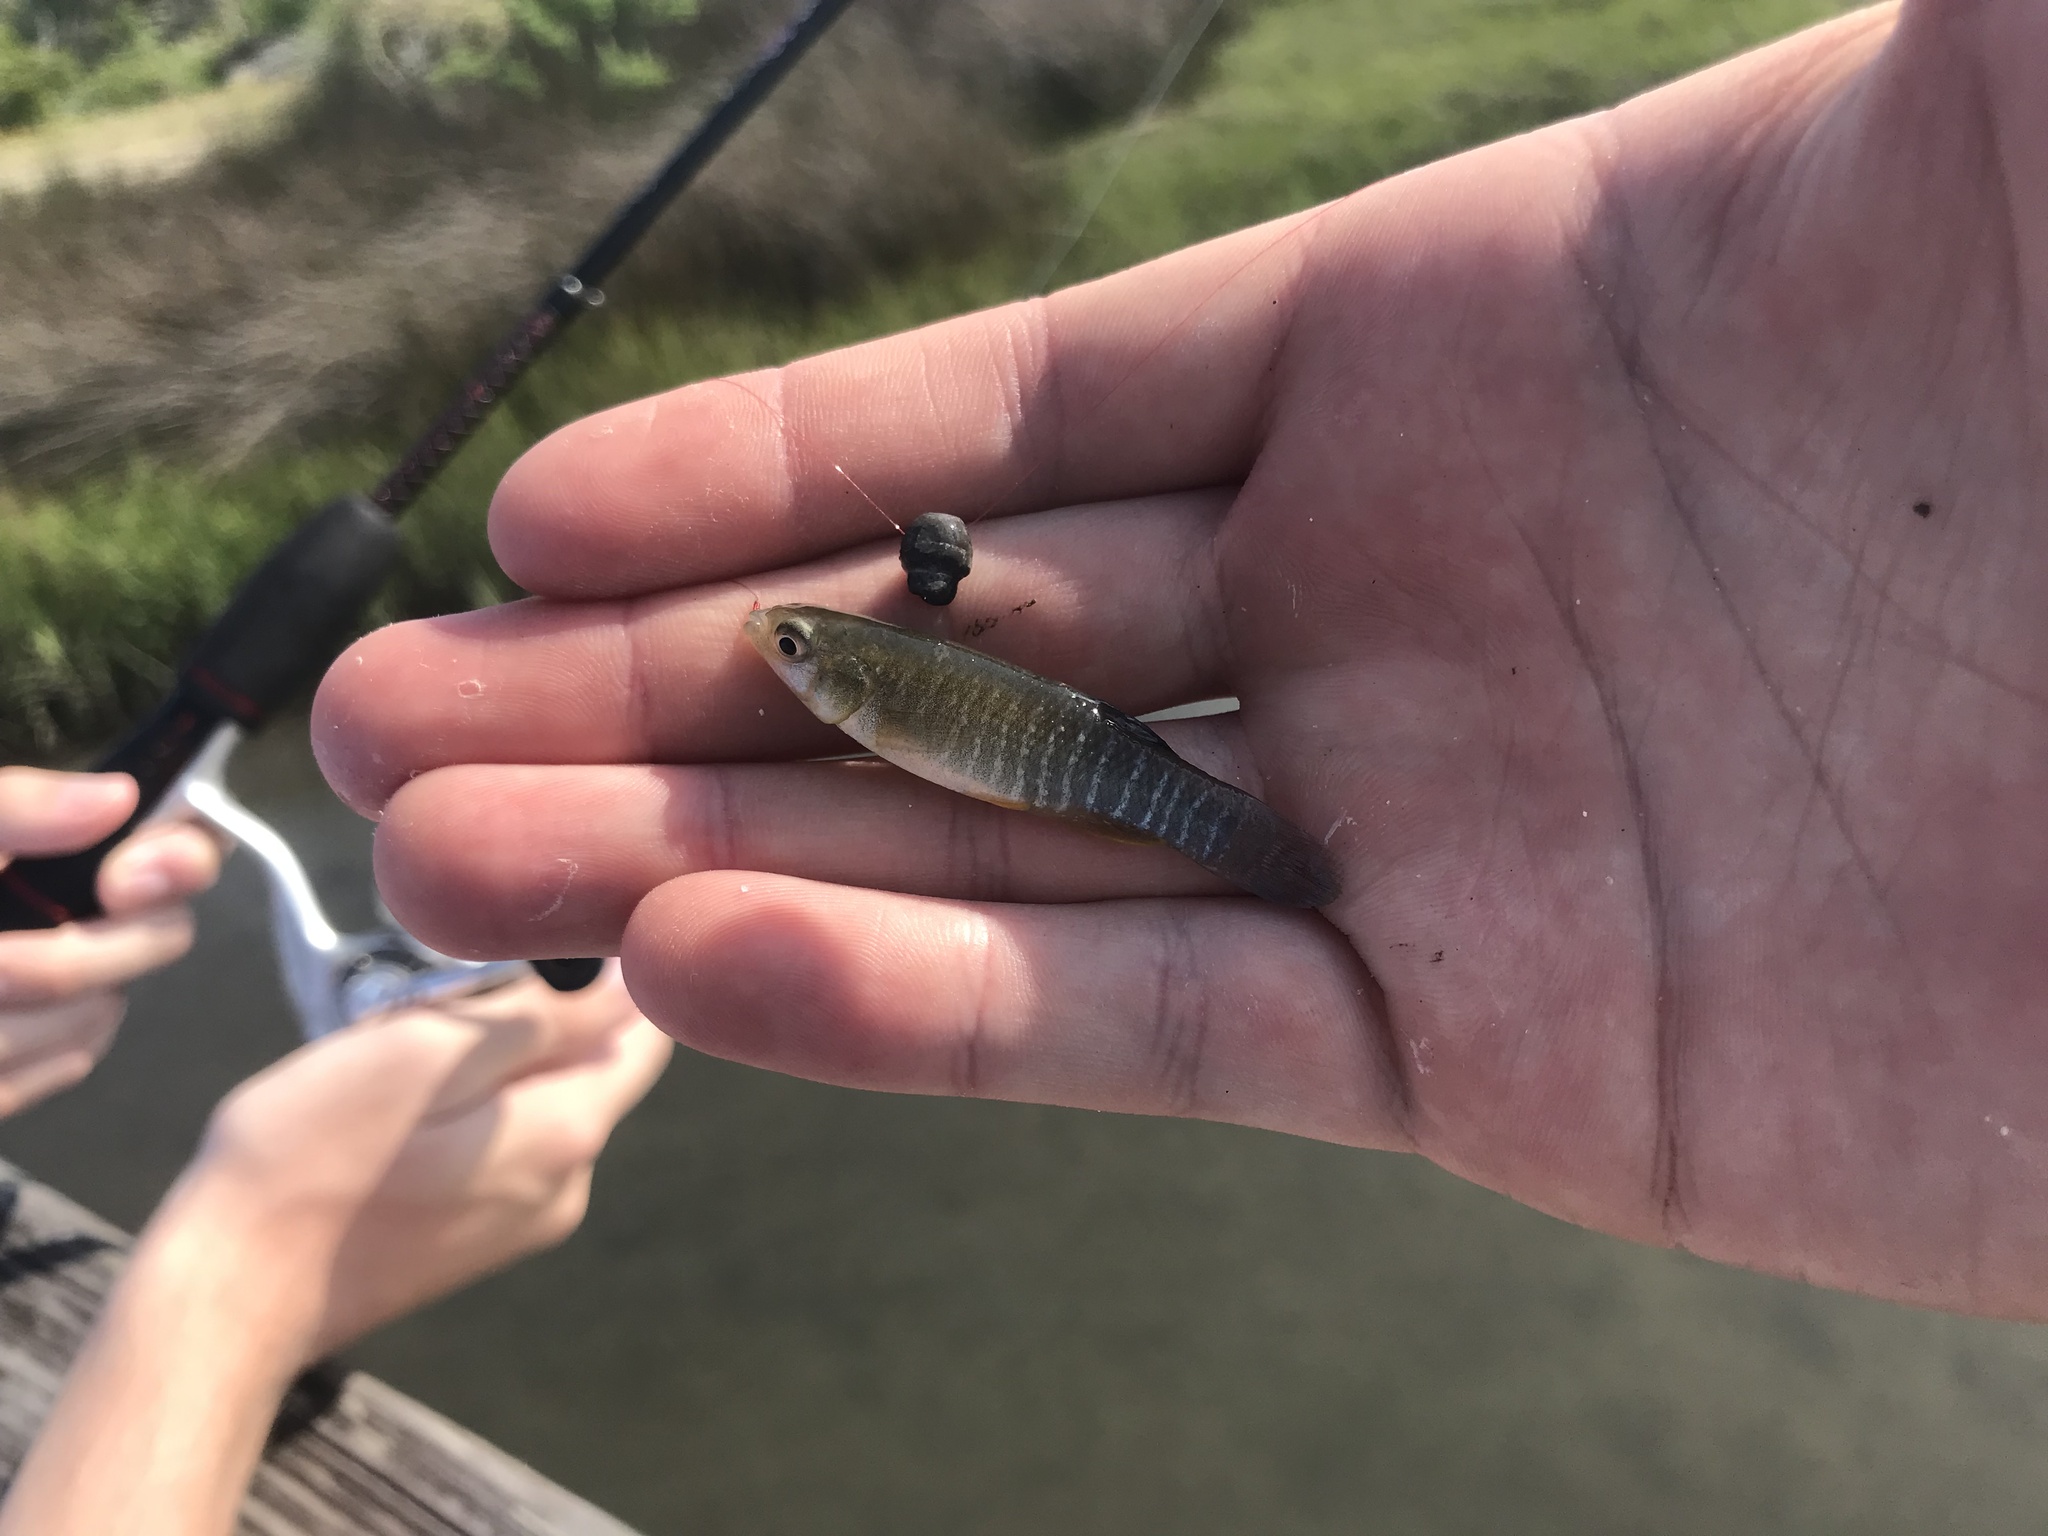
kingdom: Animalia
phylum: Chordata
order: Cyprinodontiformes
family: Fundulidae
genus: Fundulus
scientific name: Fundulus heteroclitus
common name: Mummichog
